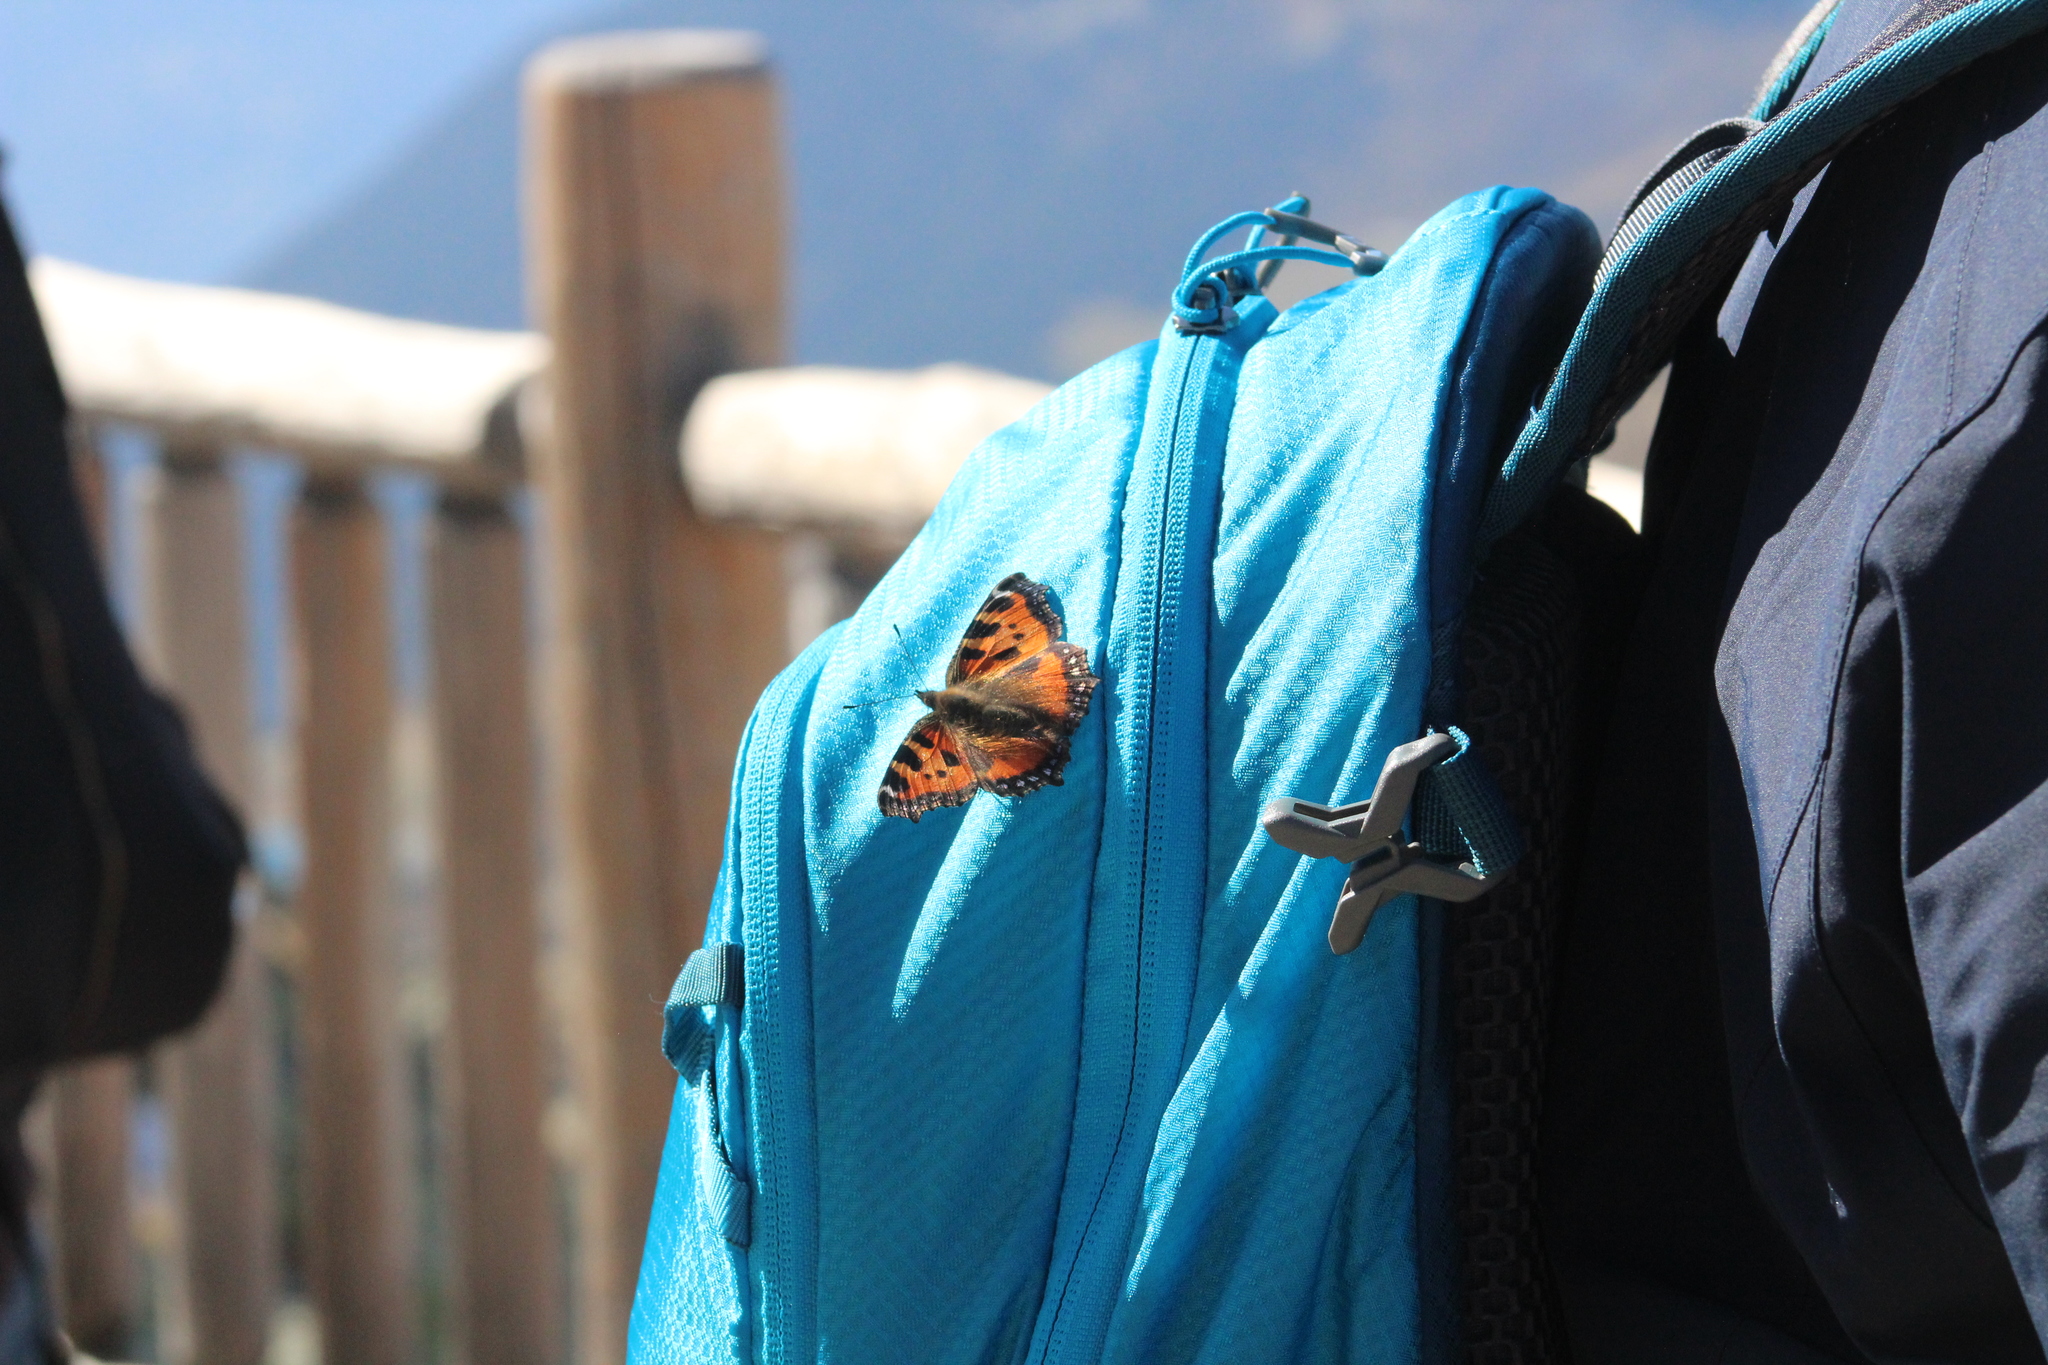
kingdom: Animalia
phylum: Arthropoda
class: Insecta
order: Lepidoptera
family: Nymphalidae
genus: Aglais
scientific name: Aglais urticae
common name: Small tortoiseshell
